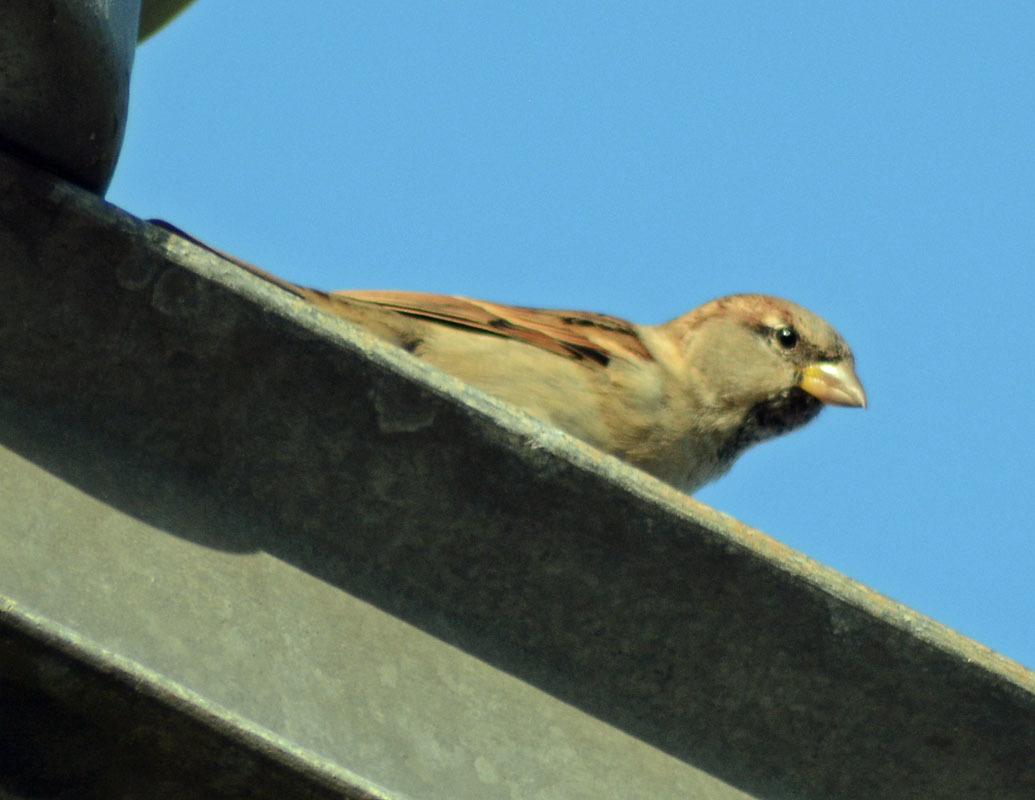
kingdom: Animalia
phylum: Chordata
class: Aves
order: Passeriformes
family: Passeridae
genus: Passer
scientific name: Passer domesticus
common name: House sparrow
